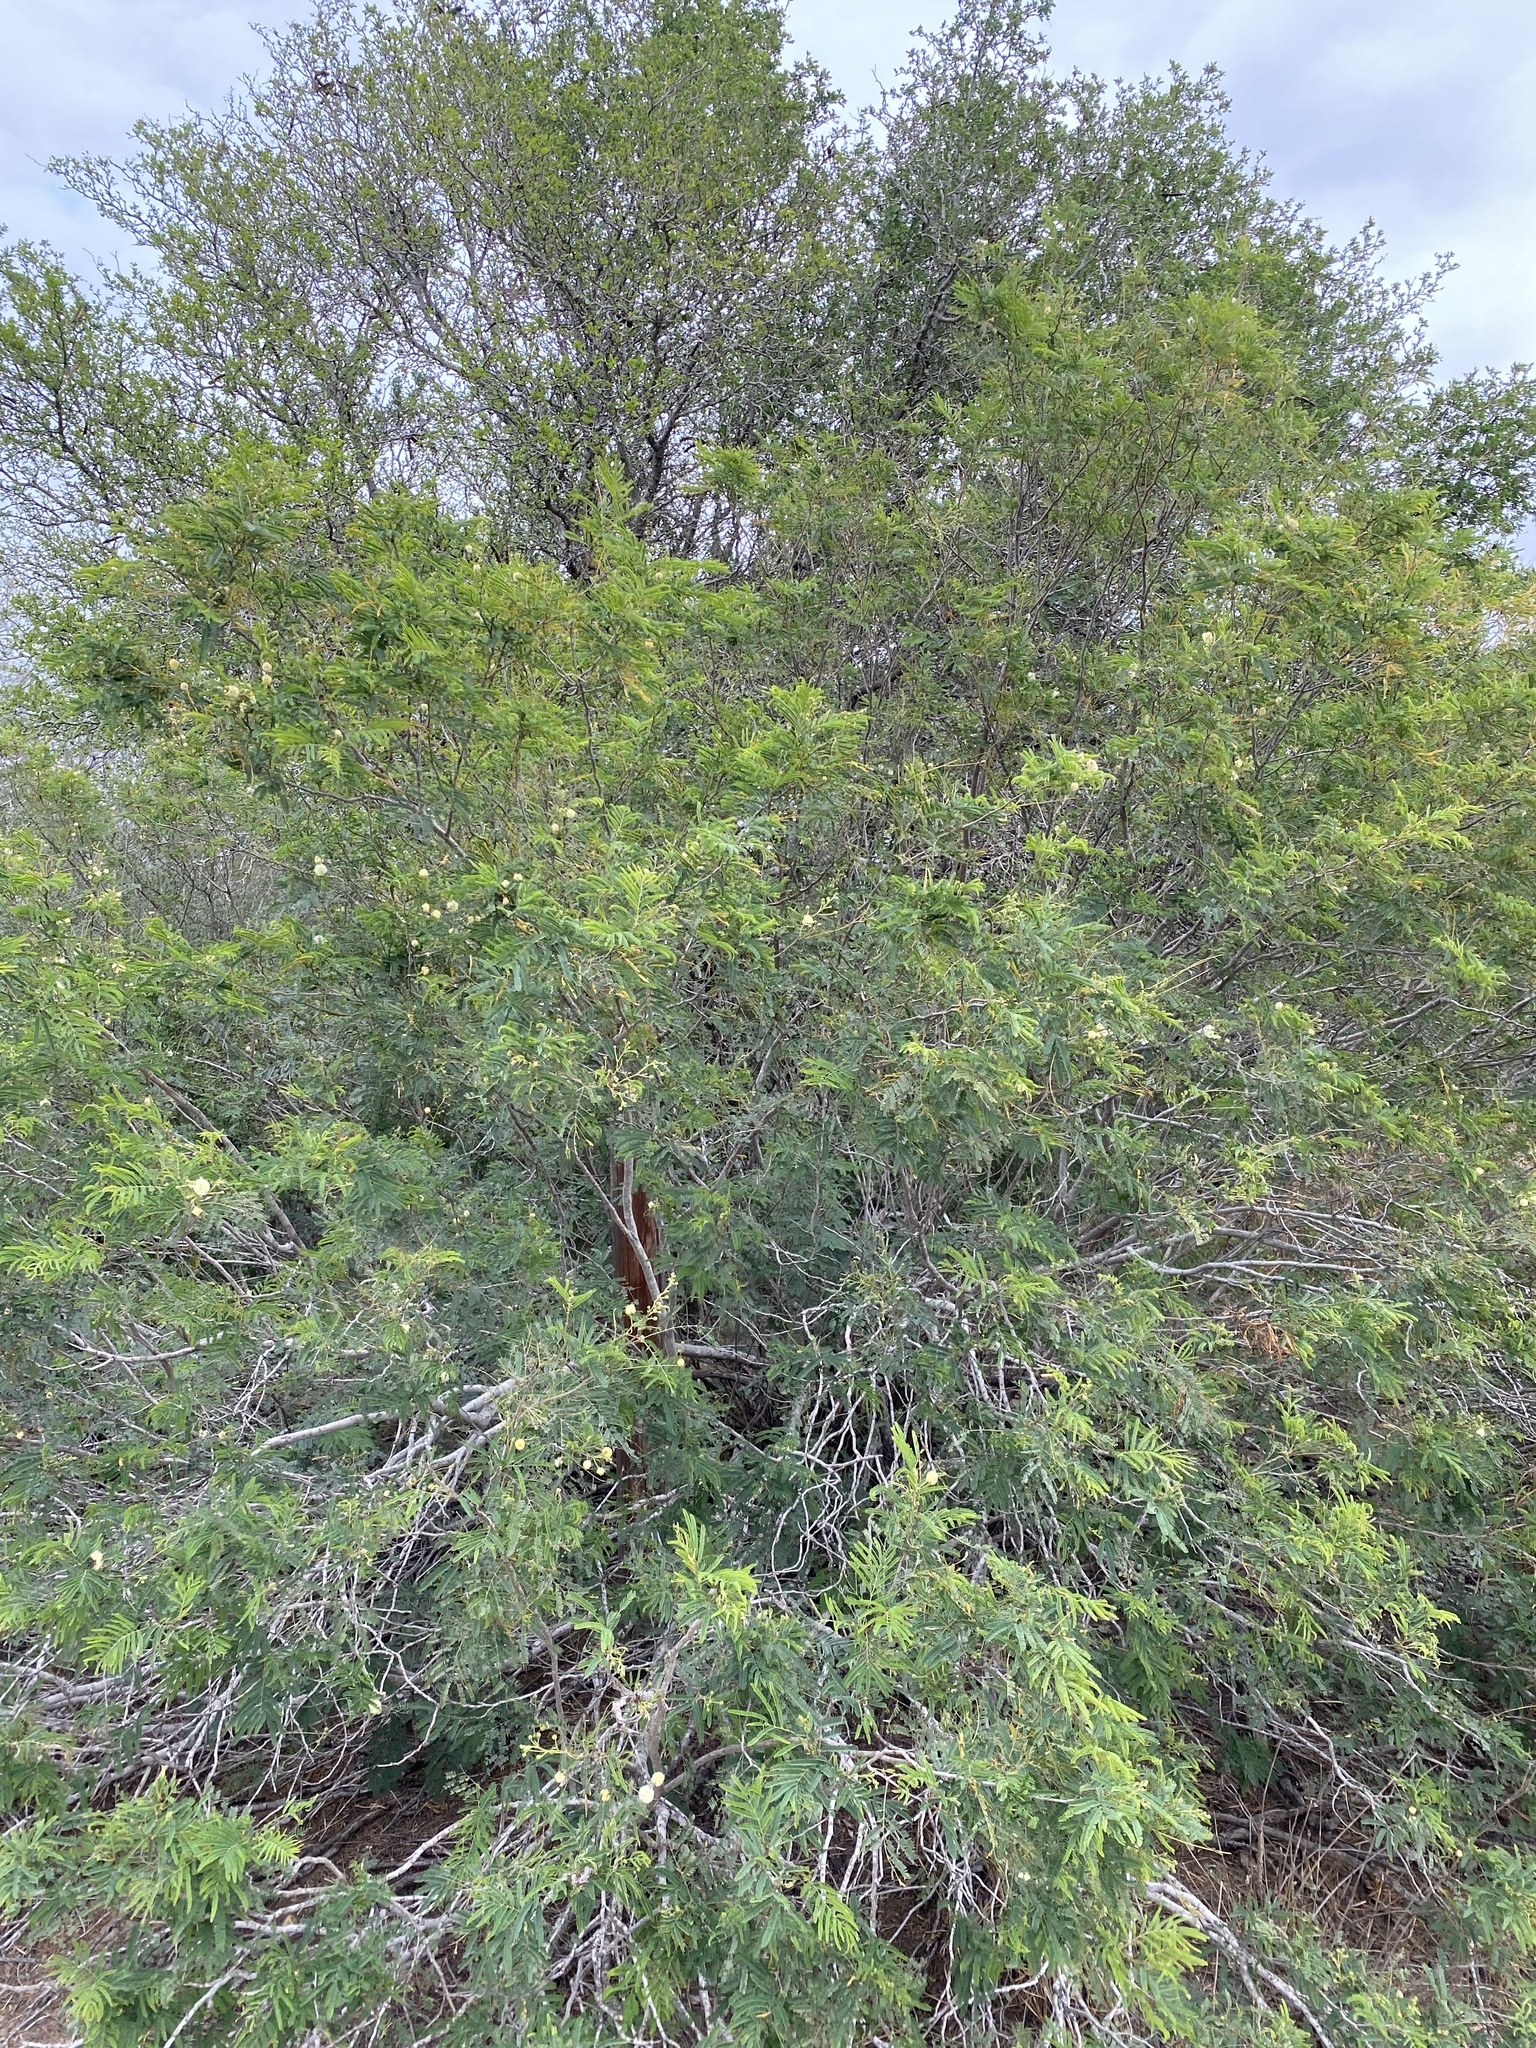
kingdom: Plantae
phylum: Tracheophyta
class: Magnoliopsida
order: Fabales
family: Fabaceae
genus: Senegalia
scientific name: Senegalia berlandieri
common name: Berlandier acacia
